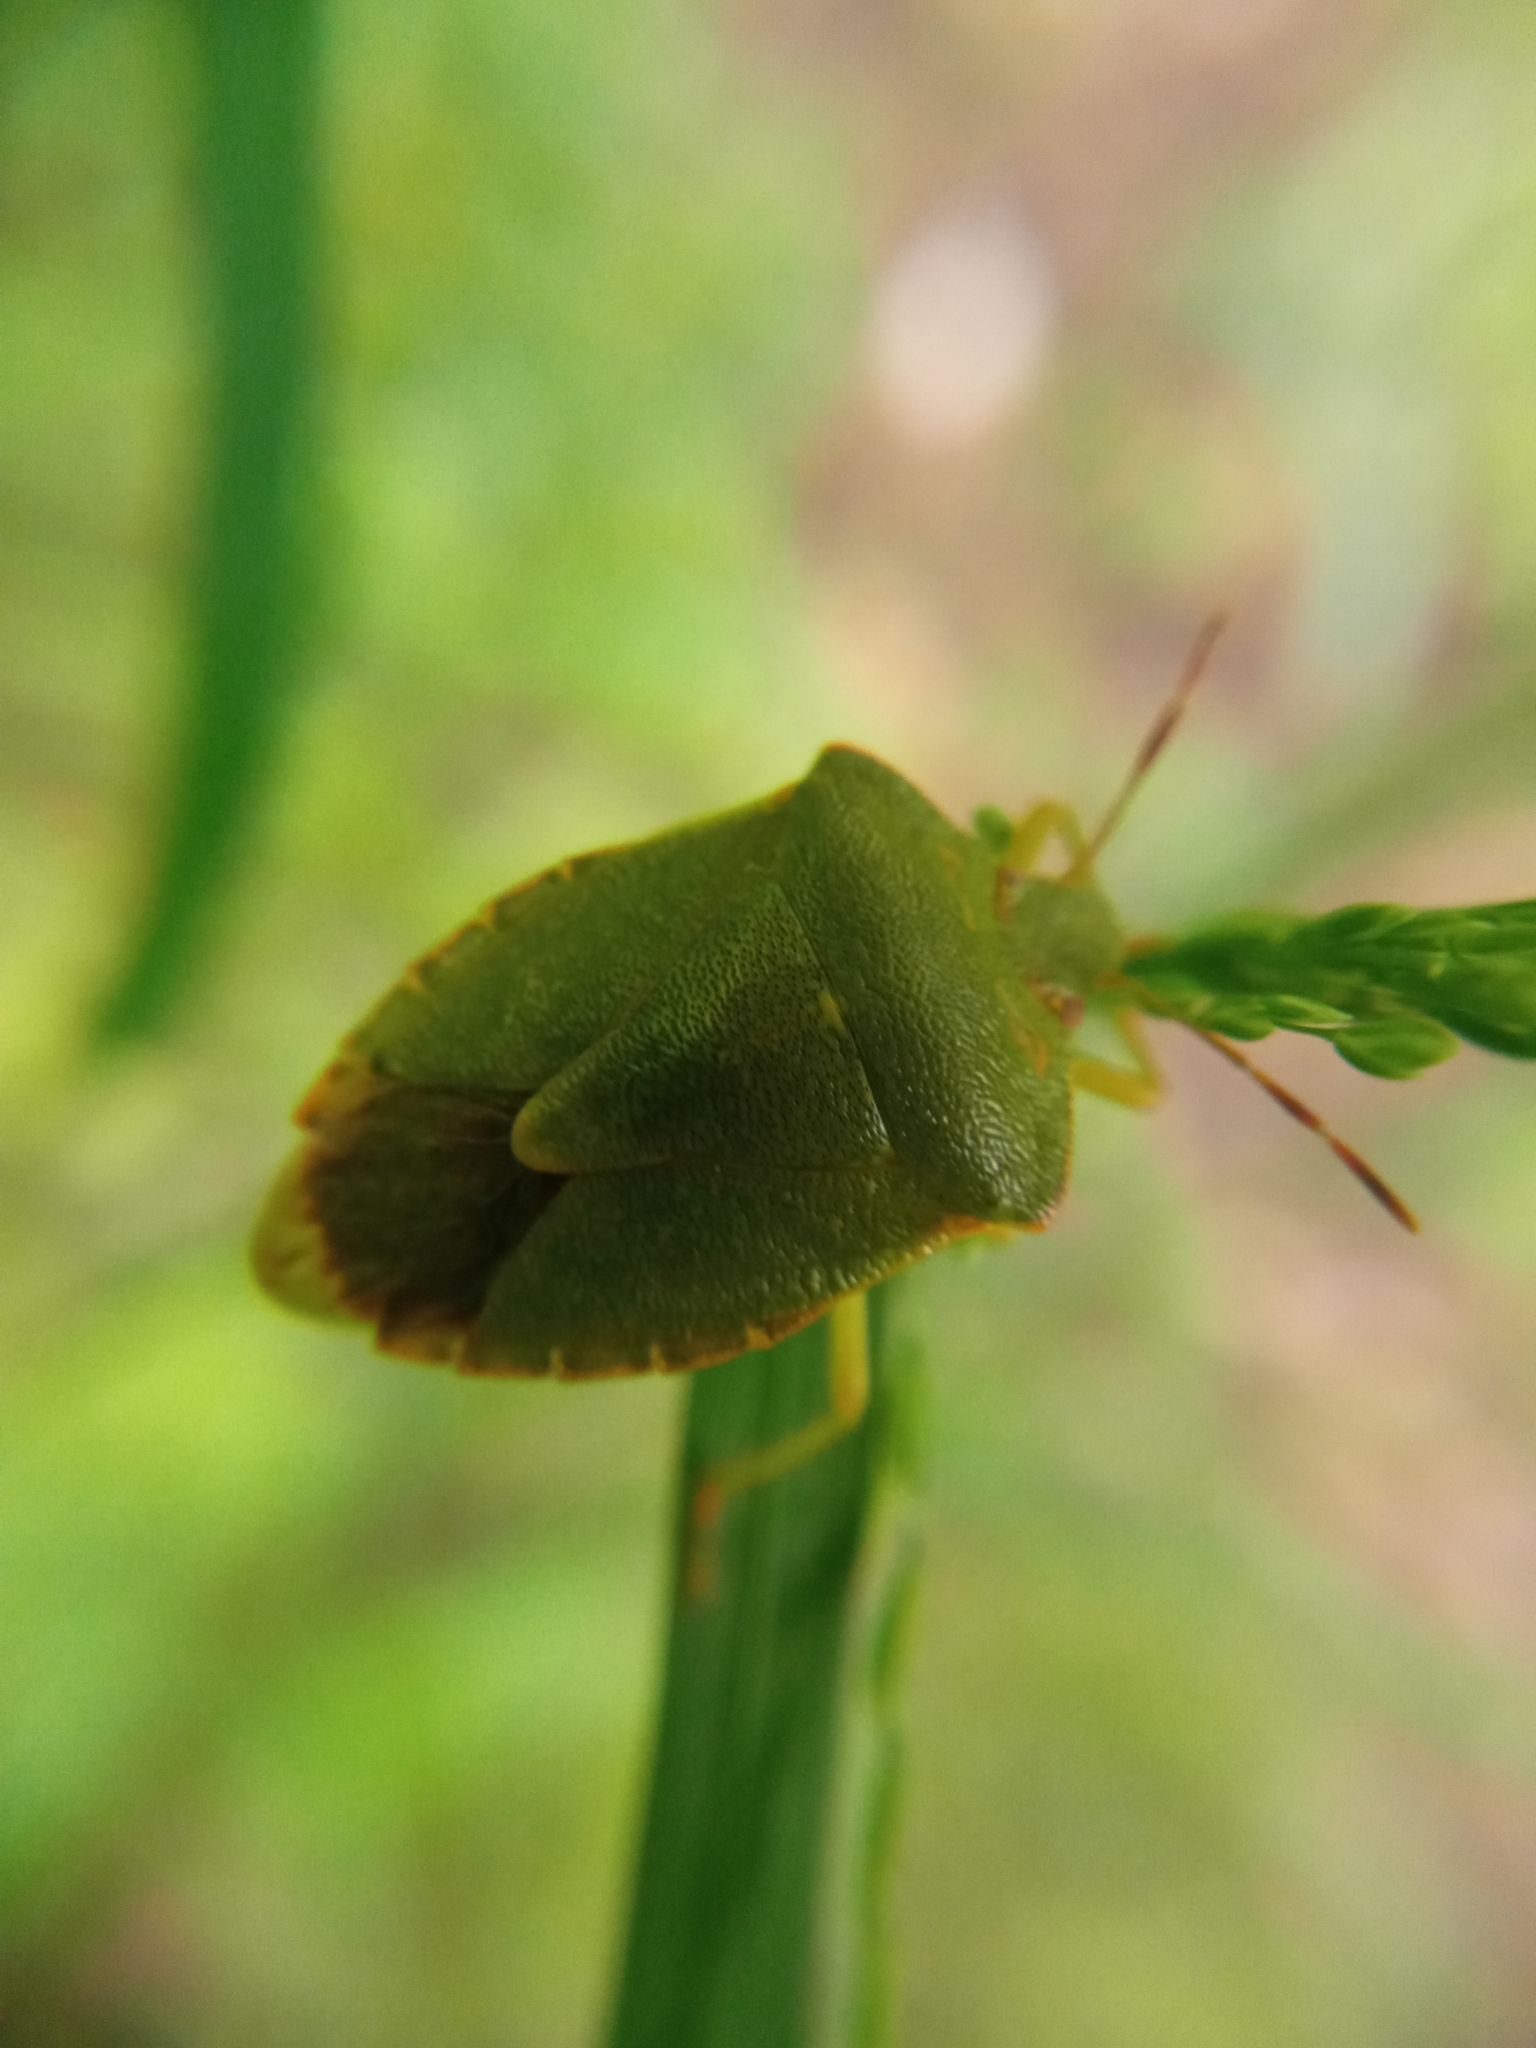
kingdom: Animalia
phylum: Arthropoda
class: Insecta
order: Hemiptera
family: Pentatomidae
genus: Palomena
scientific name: Palomena prasina
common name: Green shieldbug
